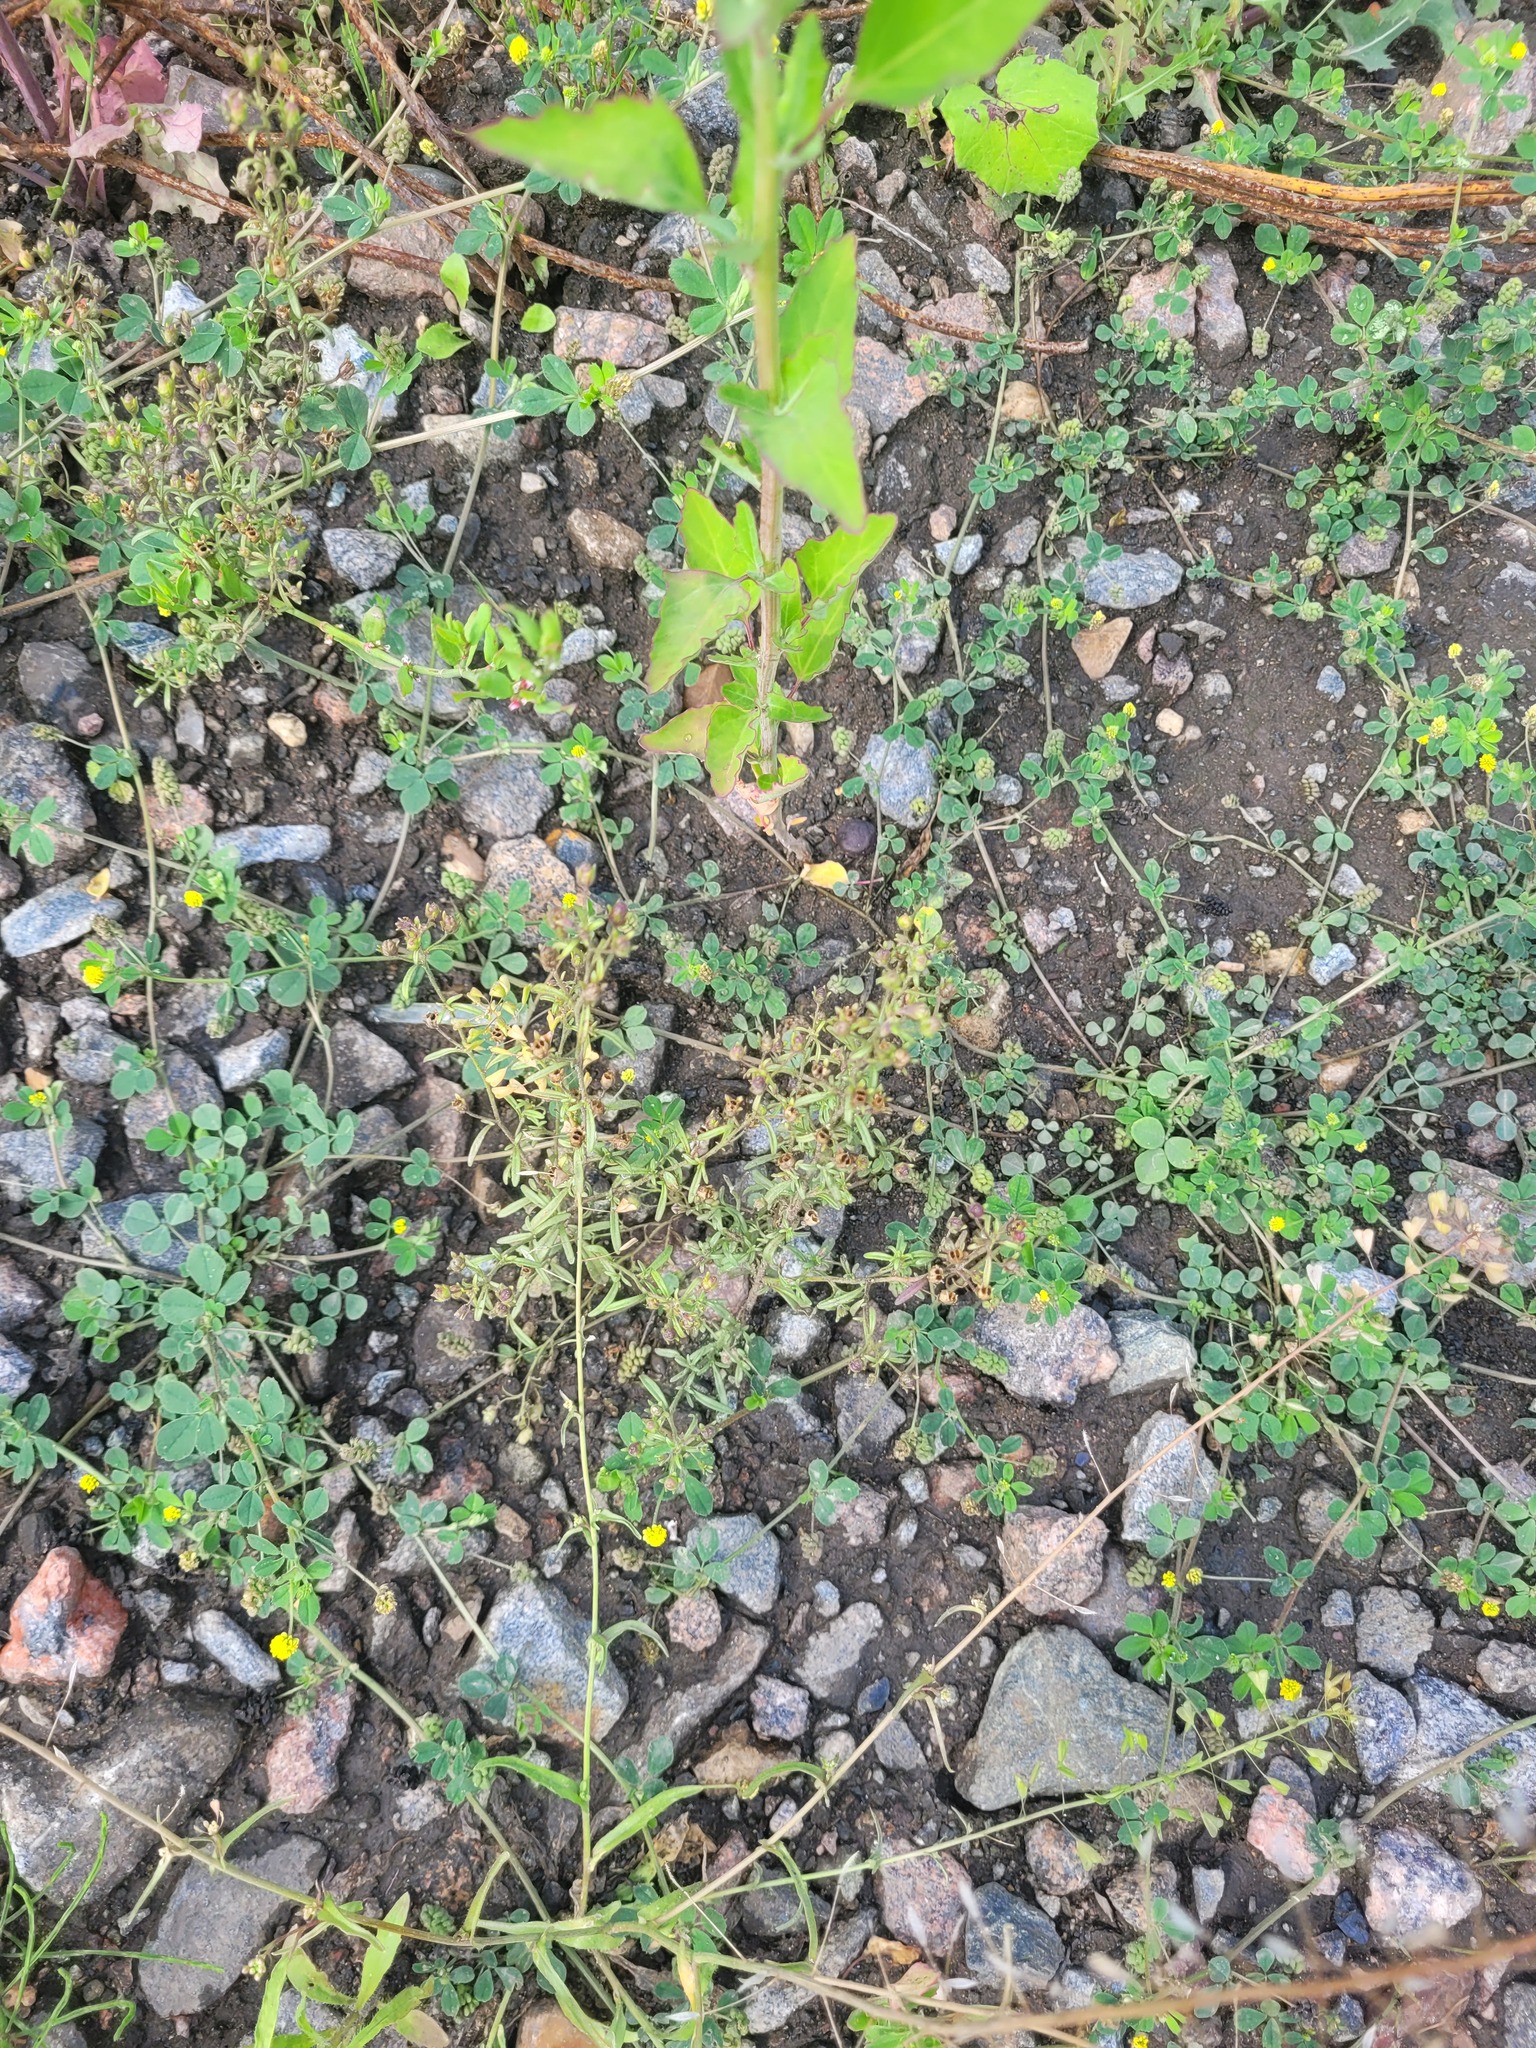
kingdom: Plantae
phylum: Tracheophyta
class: Magnoliopsida
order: Lamiales
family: Plantaginaceae
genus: Chaenorhinum
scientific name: Chaenorhinum minus
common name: Dwarf snapdragon
